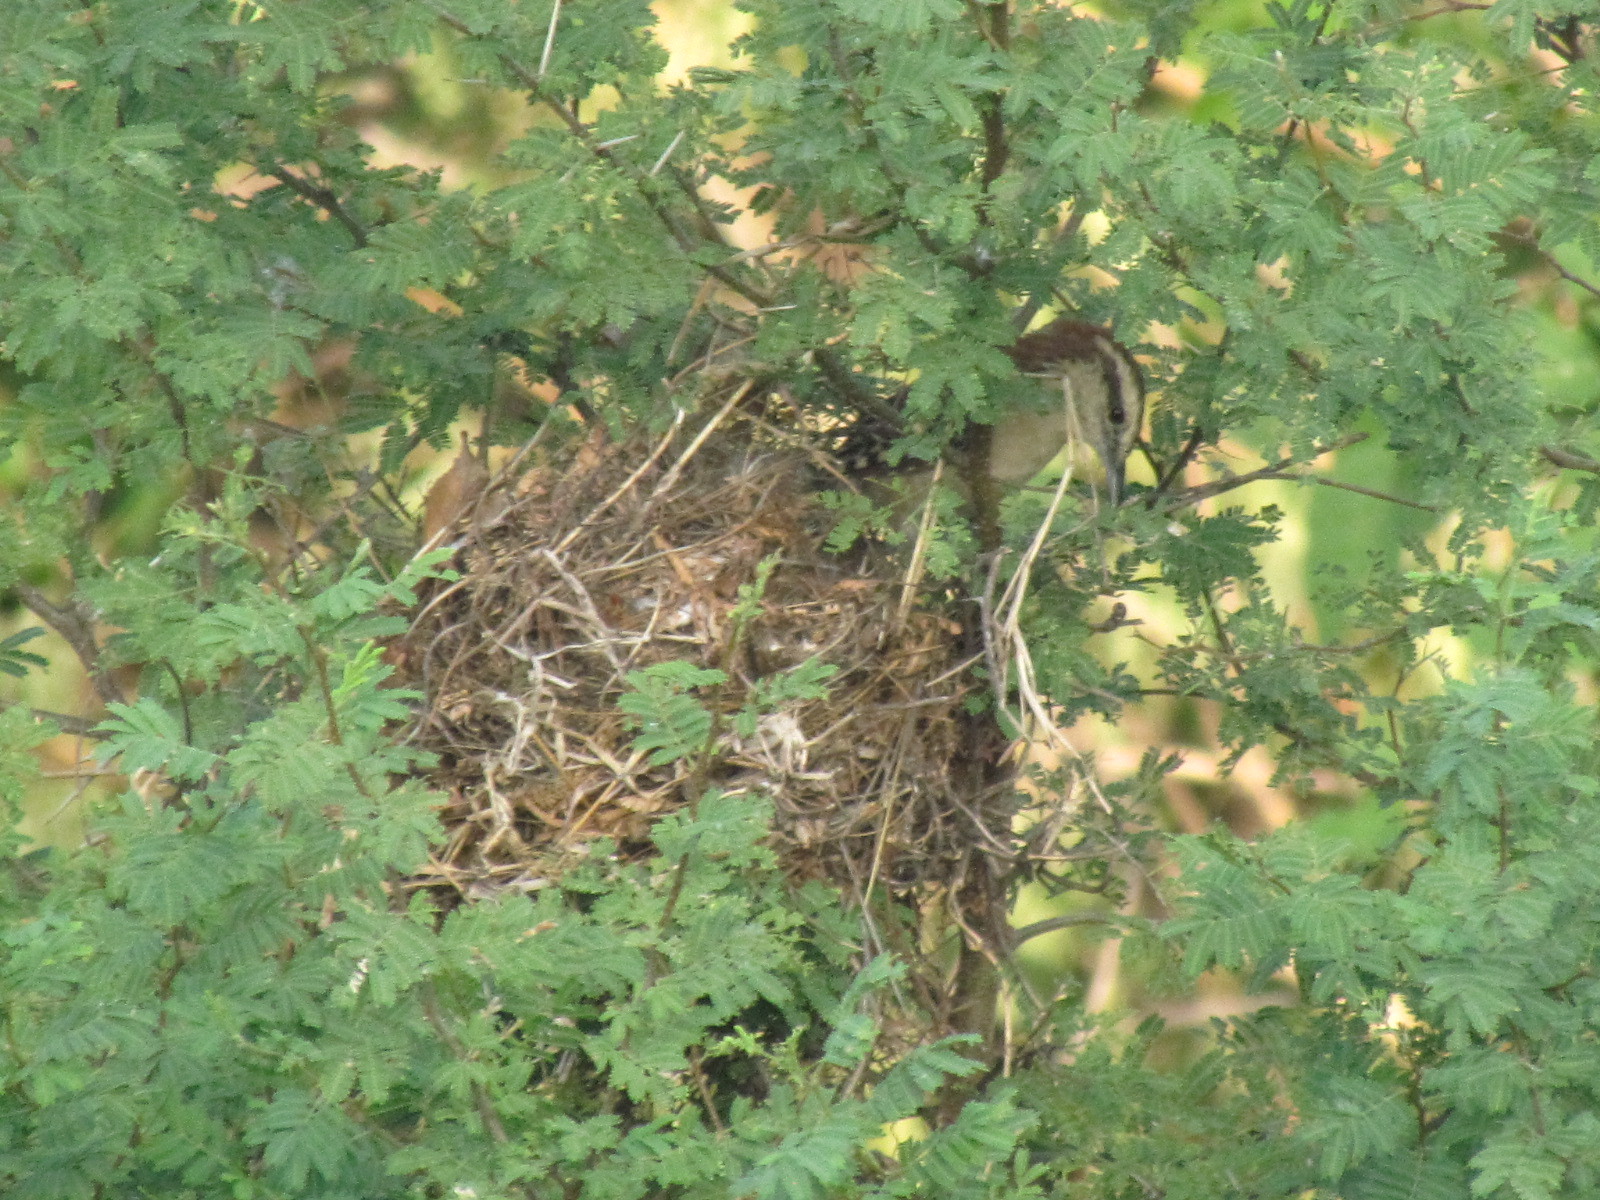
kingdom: Animalia
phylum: Chordata
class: Aves
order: Passeriformes
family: Troglodytidae
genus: Campylorhynchus
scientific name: Campylorhynchus rufinucha
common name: Rufous-naped wren
